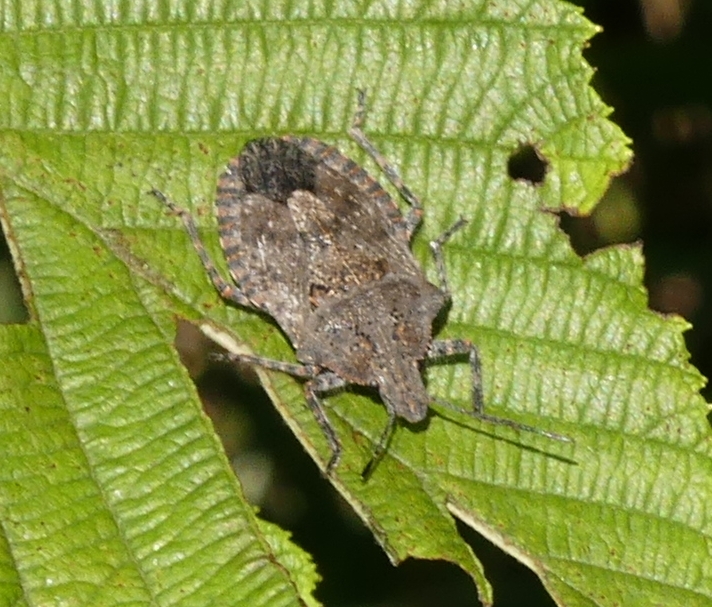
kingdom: Animalia
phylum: Arthropoda
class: Insecta
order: Hemiptera
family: Pentatomidae
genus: Brochymena
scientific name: Brochymena quadripustulata
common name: Four-humped stink bug
